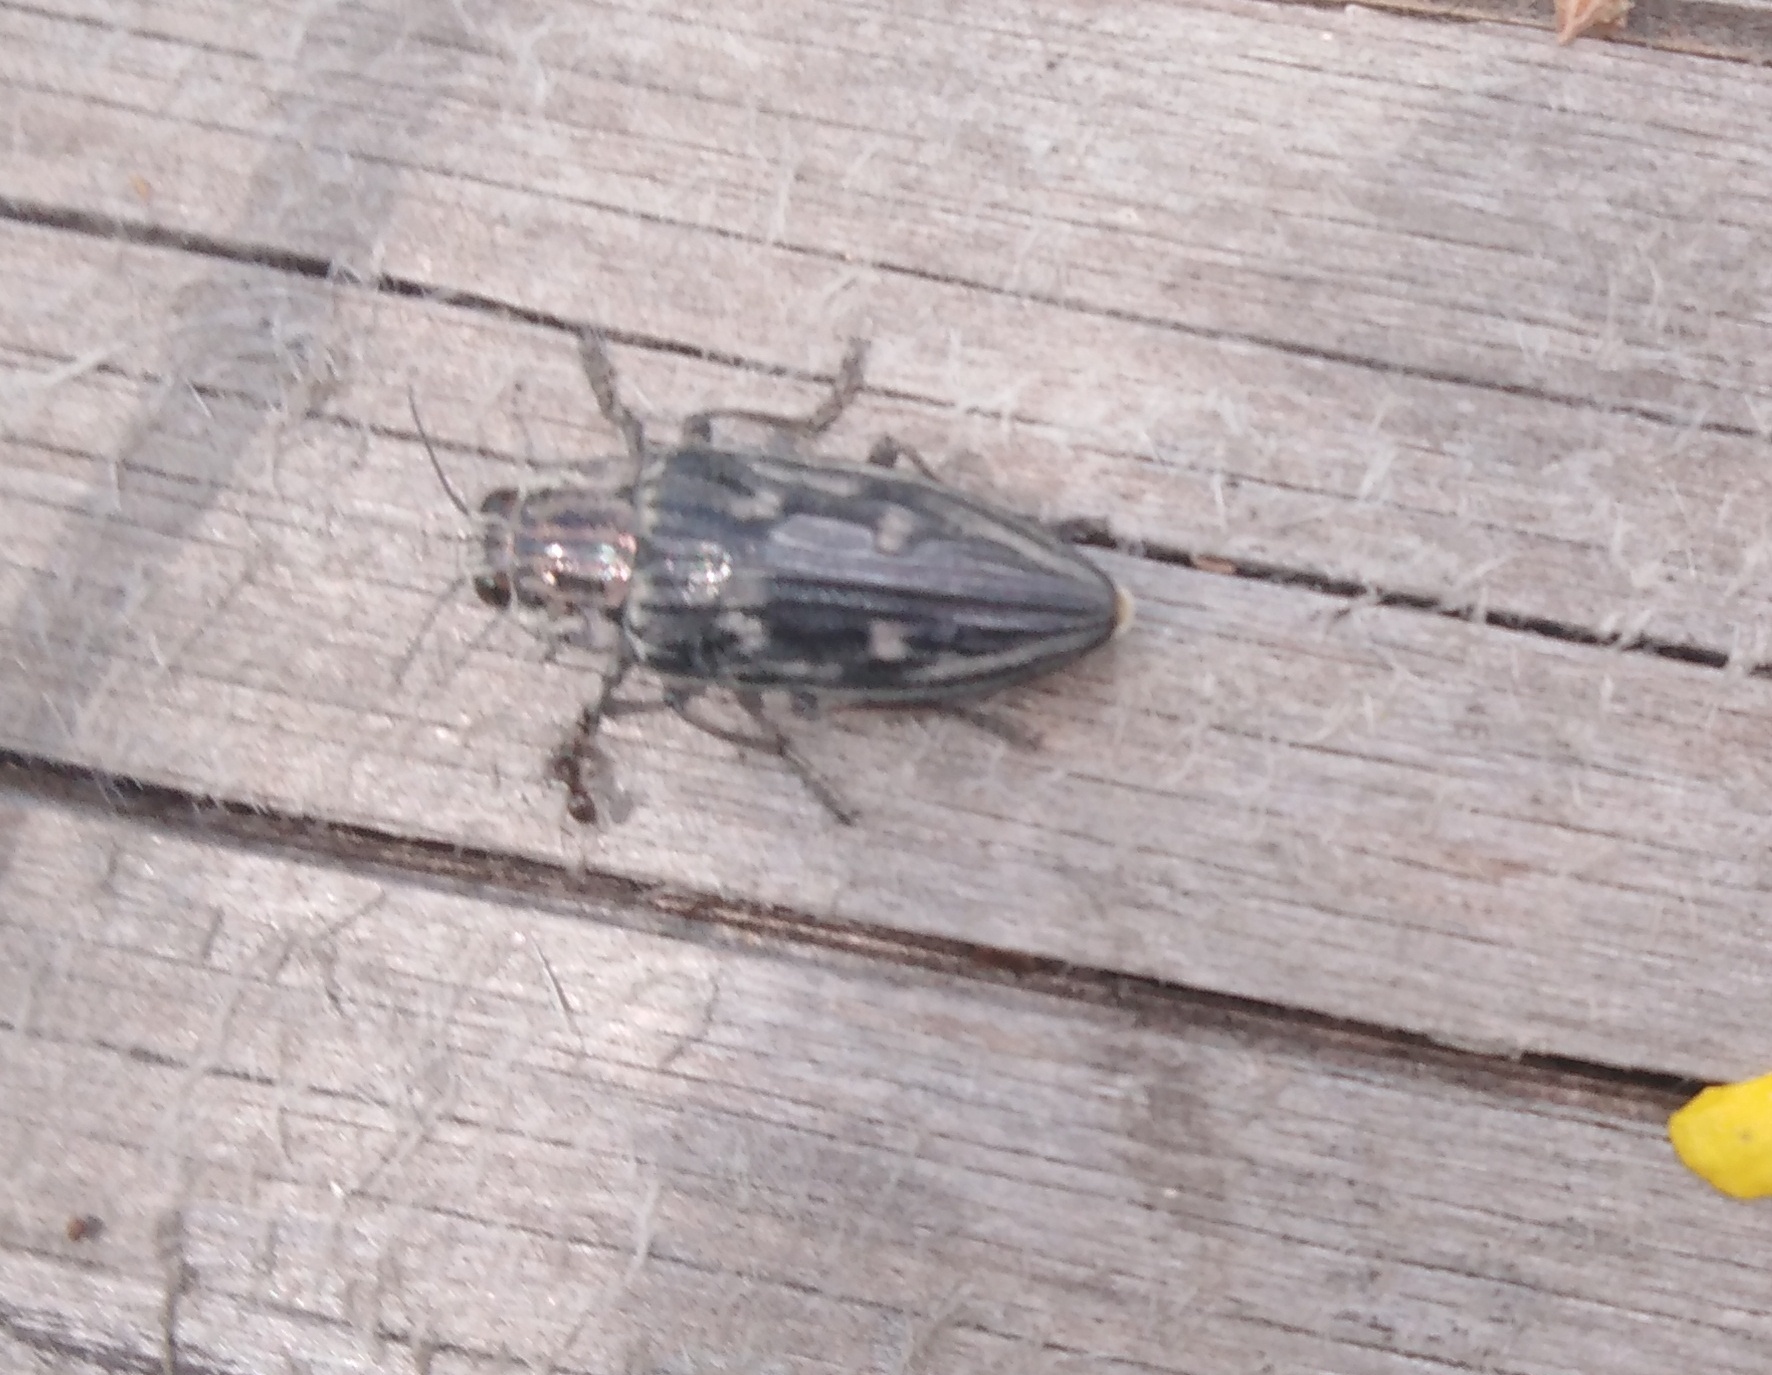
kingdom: Animalia
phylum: Arthropoda
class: Insecta
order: Coleoptera
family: Buprestidae
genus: Chalcophora
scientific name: Chalcophora mariana
